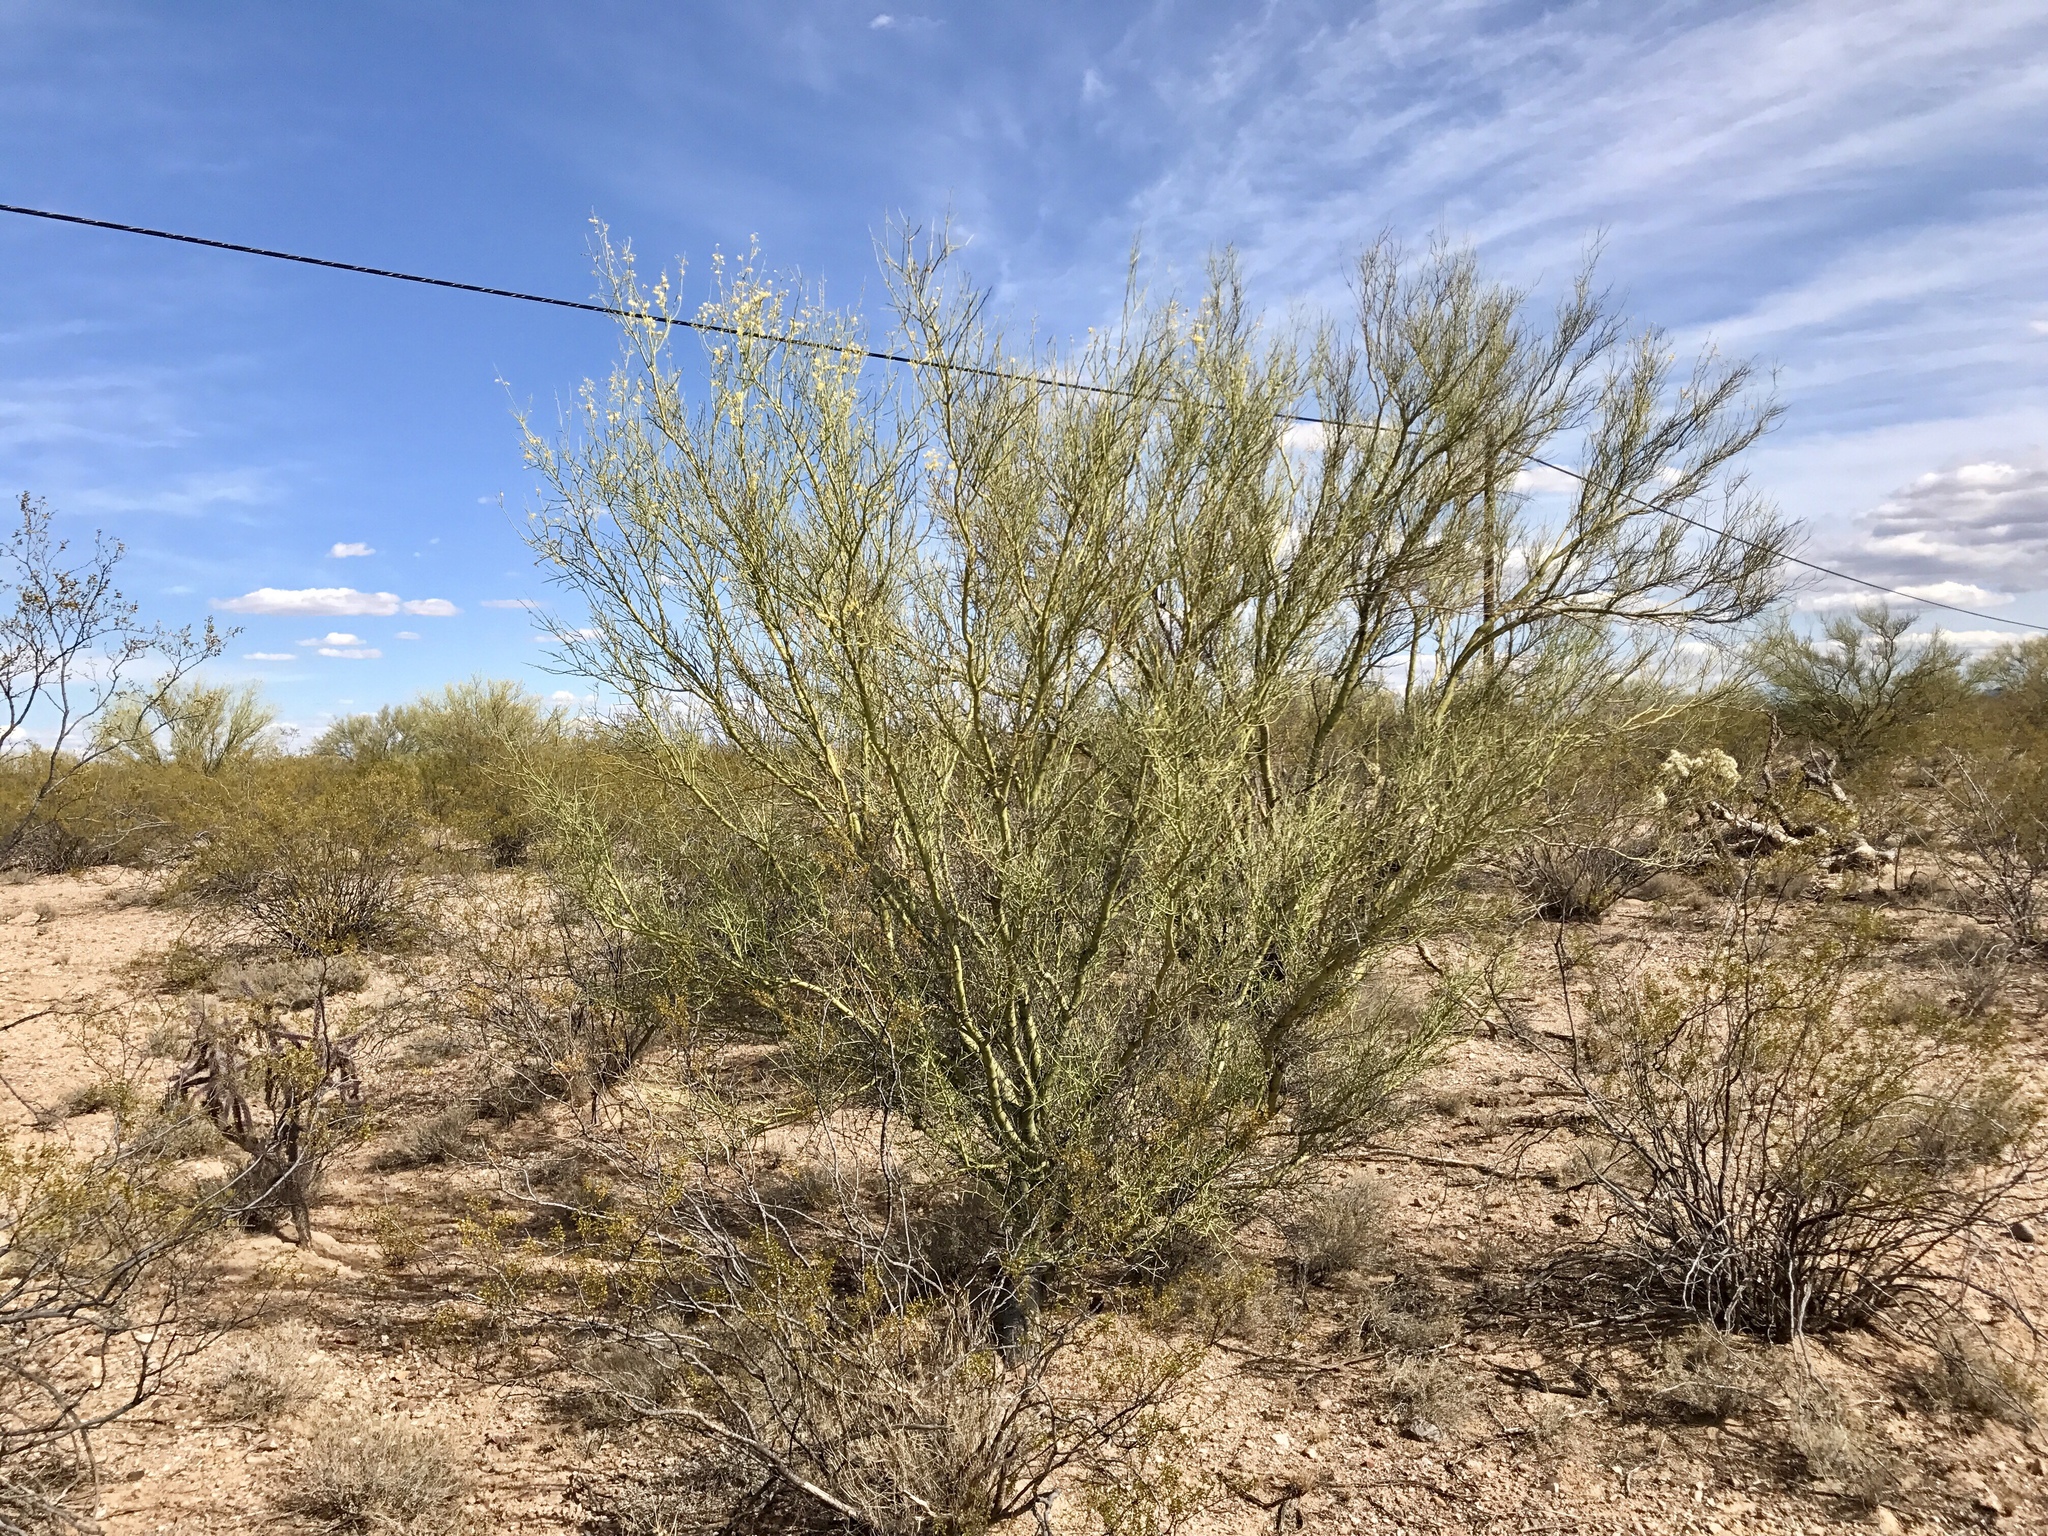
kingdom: Plantae
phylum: Tracheophyta
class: Magnoliopsida
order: Fabales
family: Fabaceae
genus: Parkinsonia
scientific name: Parkinsonia microphylla
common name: Yellow paloverde
